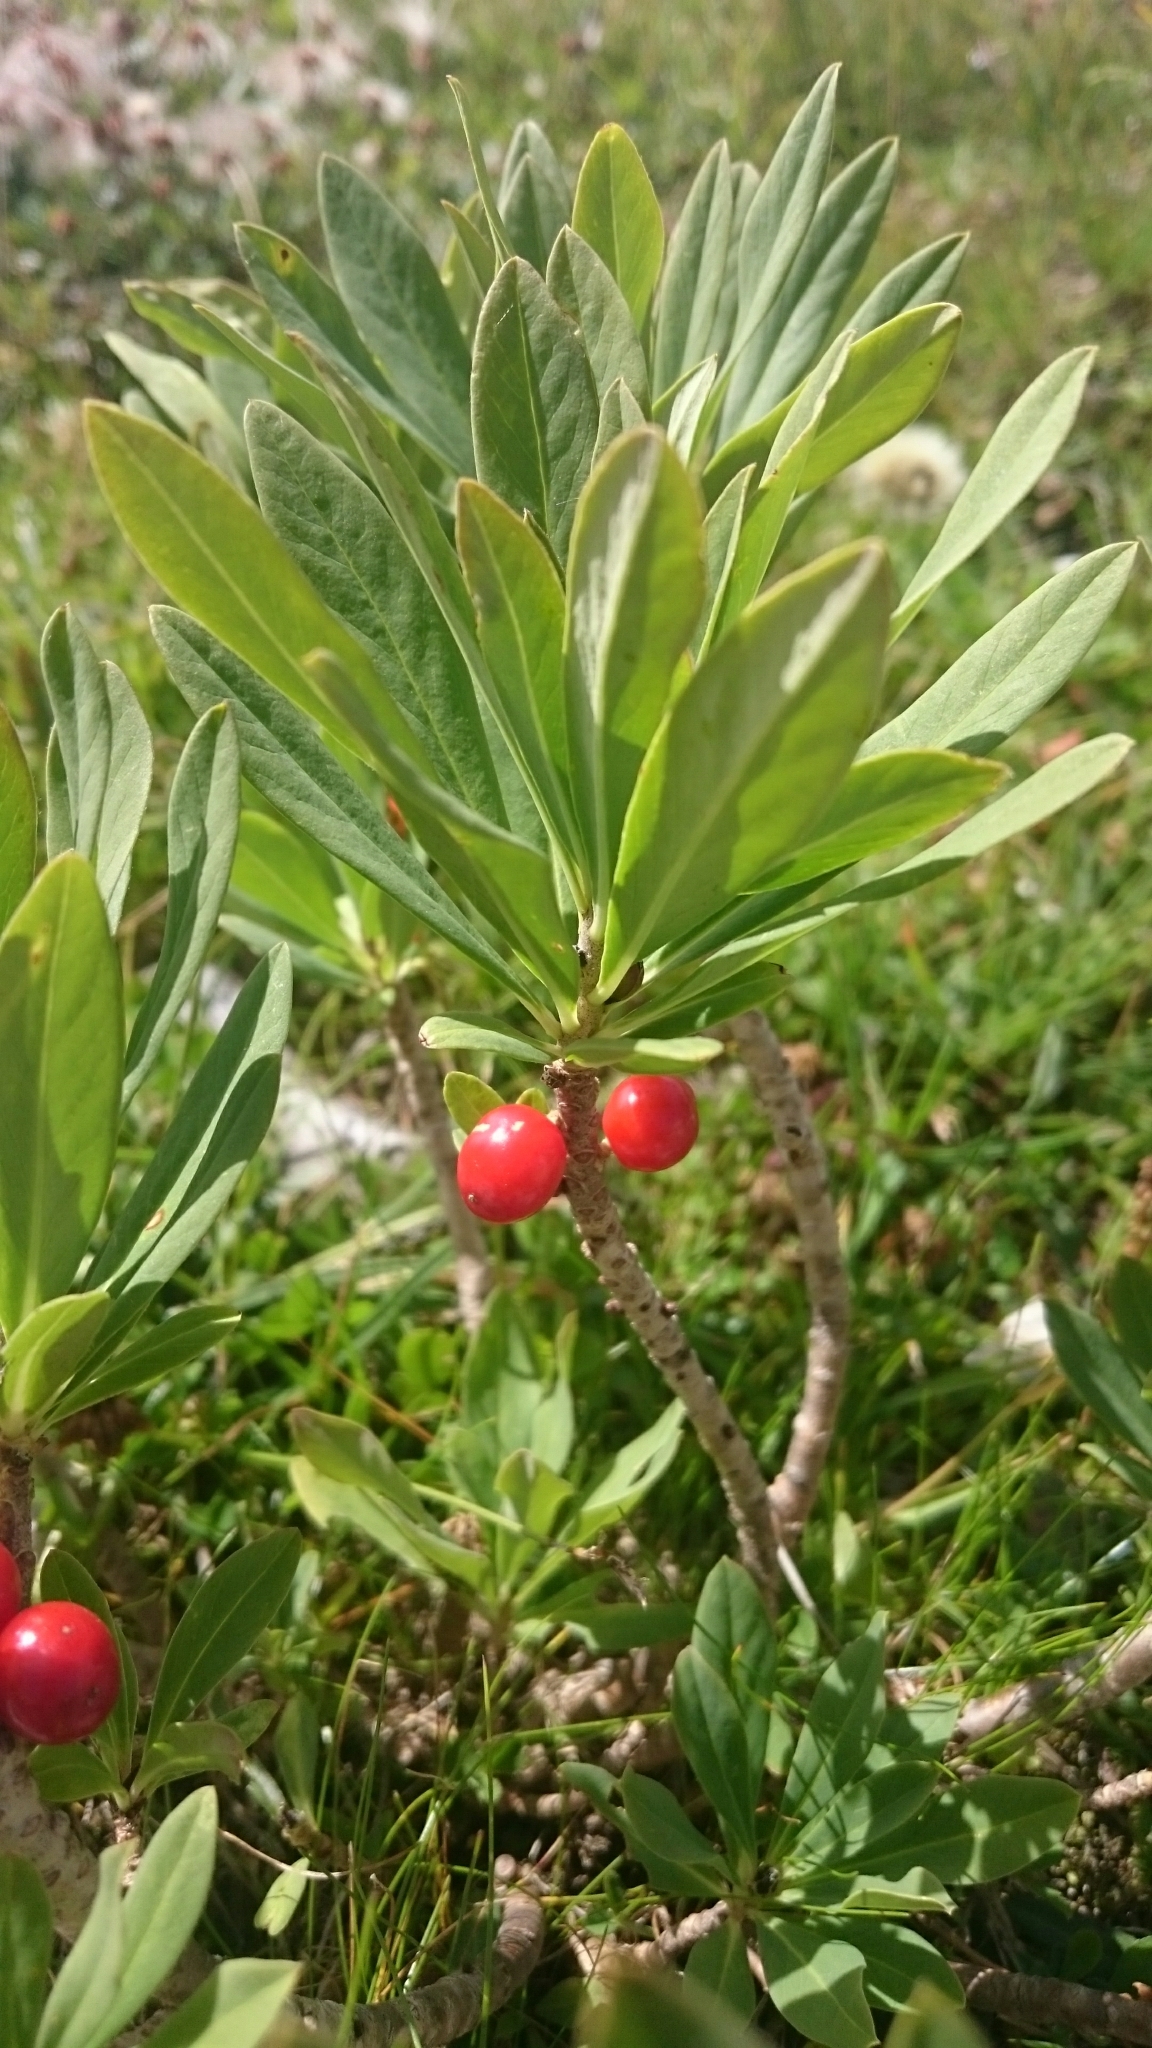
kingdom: Plantae
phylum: Tracheophyta
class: Magnoliopsida
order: Malvales
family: Thymelaeaceae
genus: Daphne
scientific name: Daphne mezereum
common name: Mezereon
